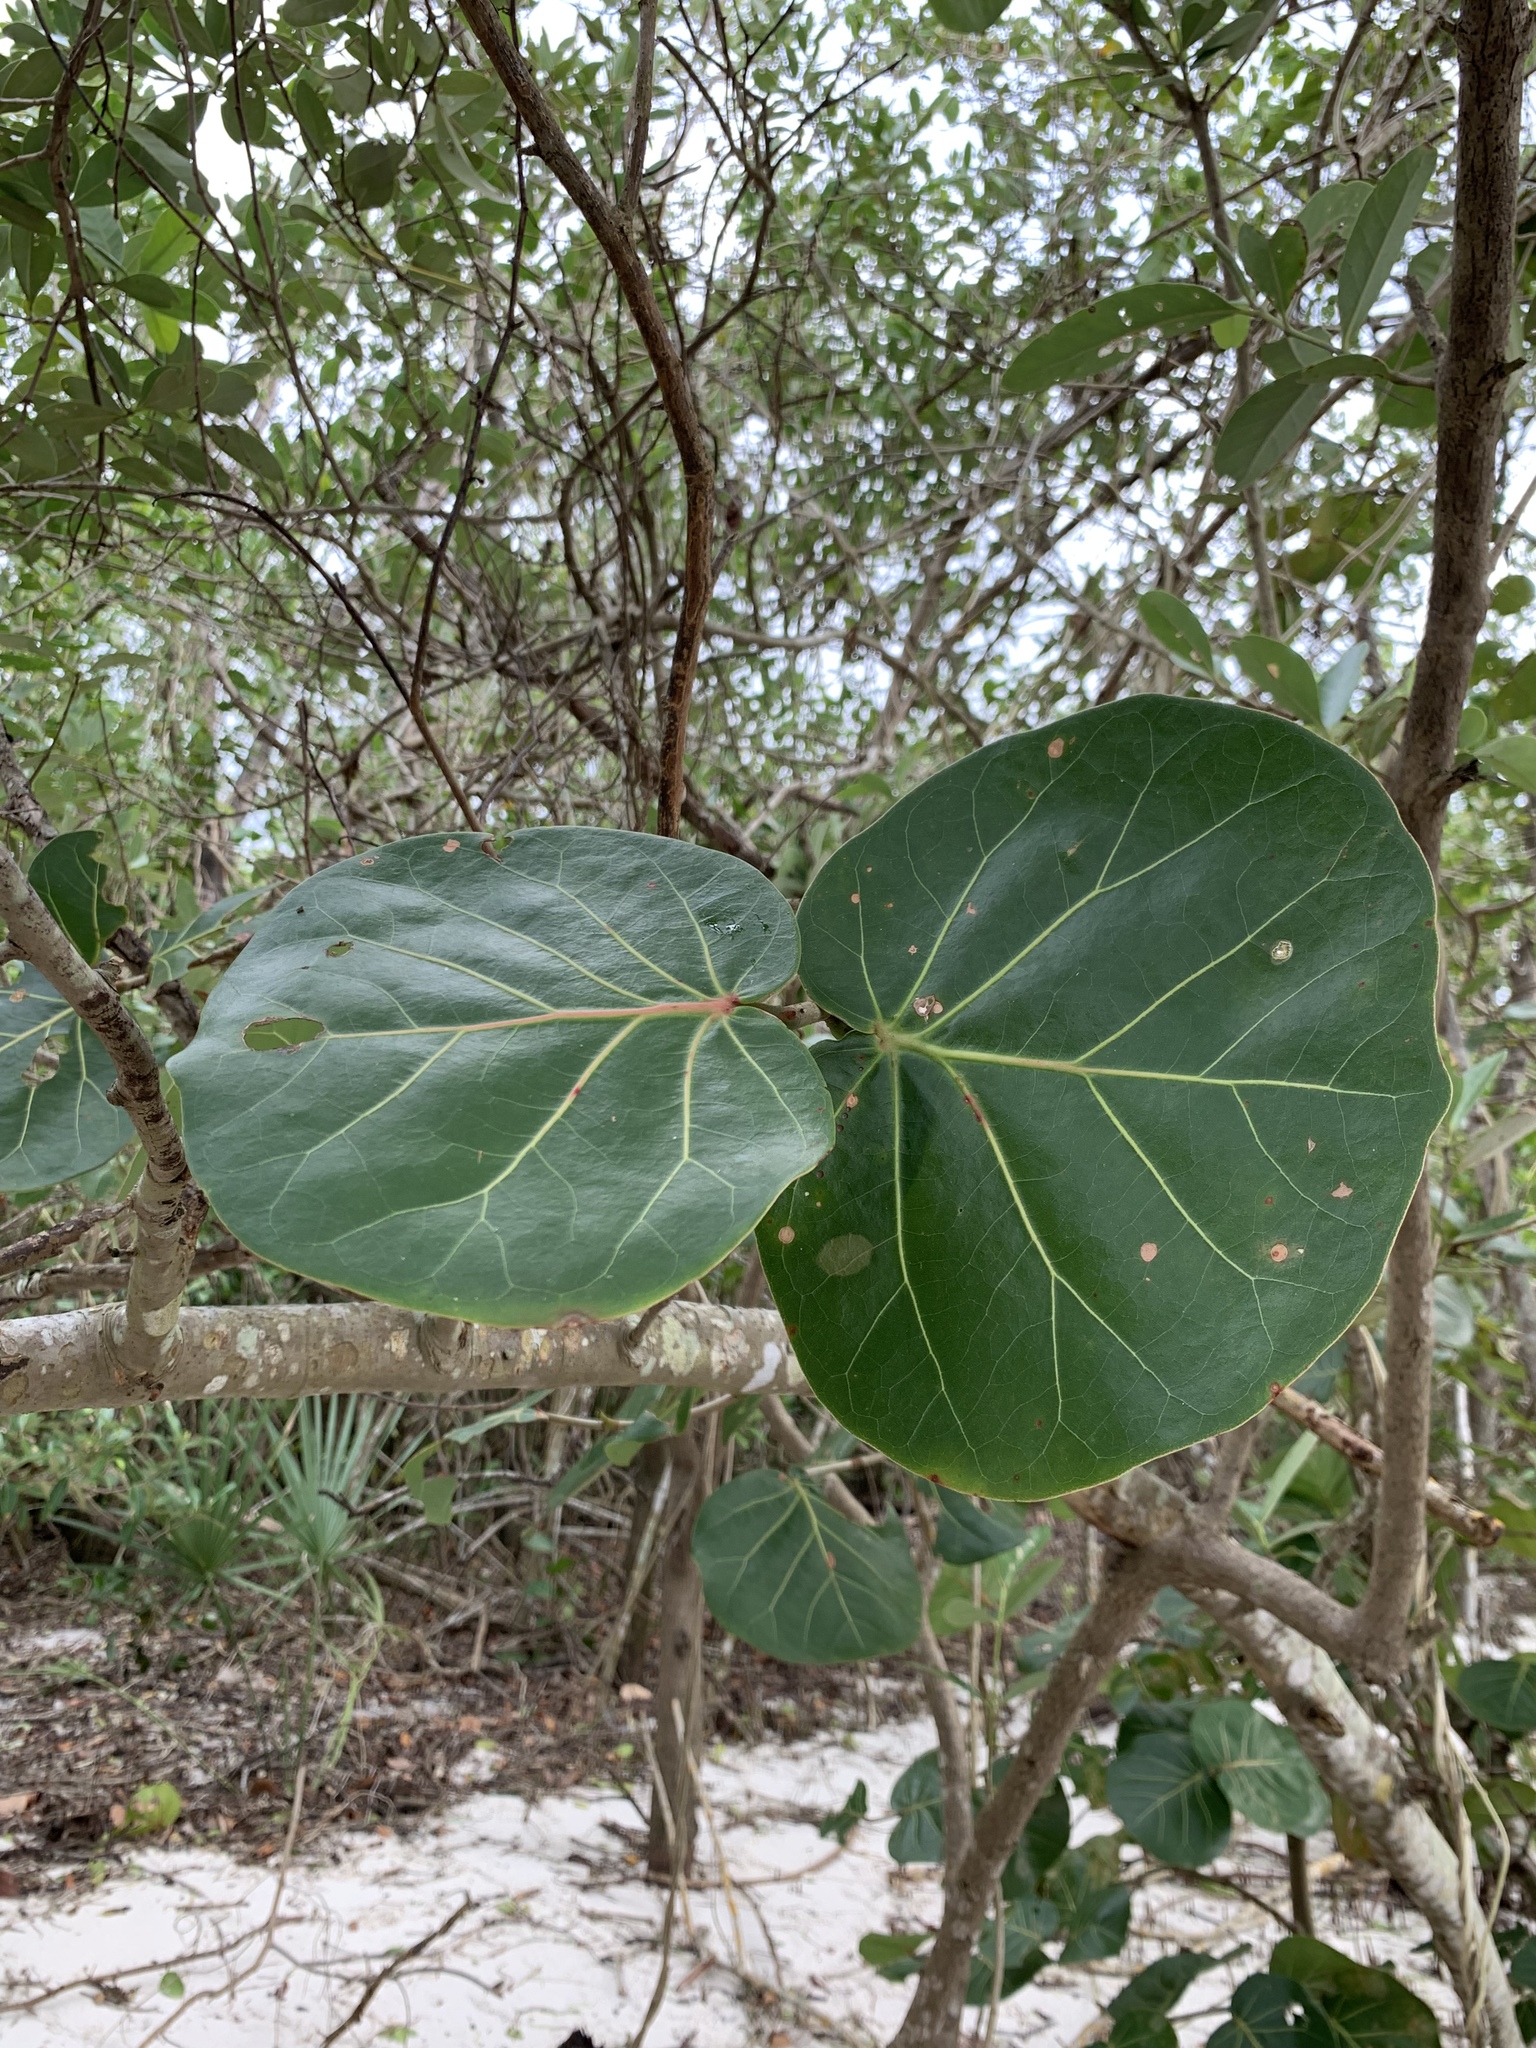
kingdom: Plantae
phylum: Tracheophyta
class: Magnoliopsida
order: Caryophyllales
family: Polygonaceae
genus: Coccoloba
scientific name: Coccoloba uvifera
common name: Seagrape
